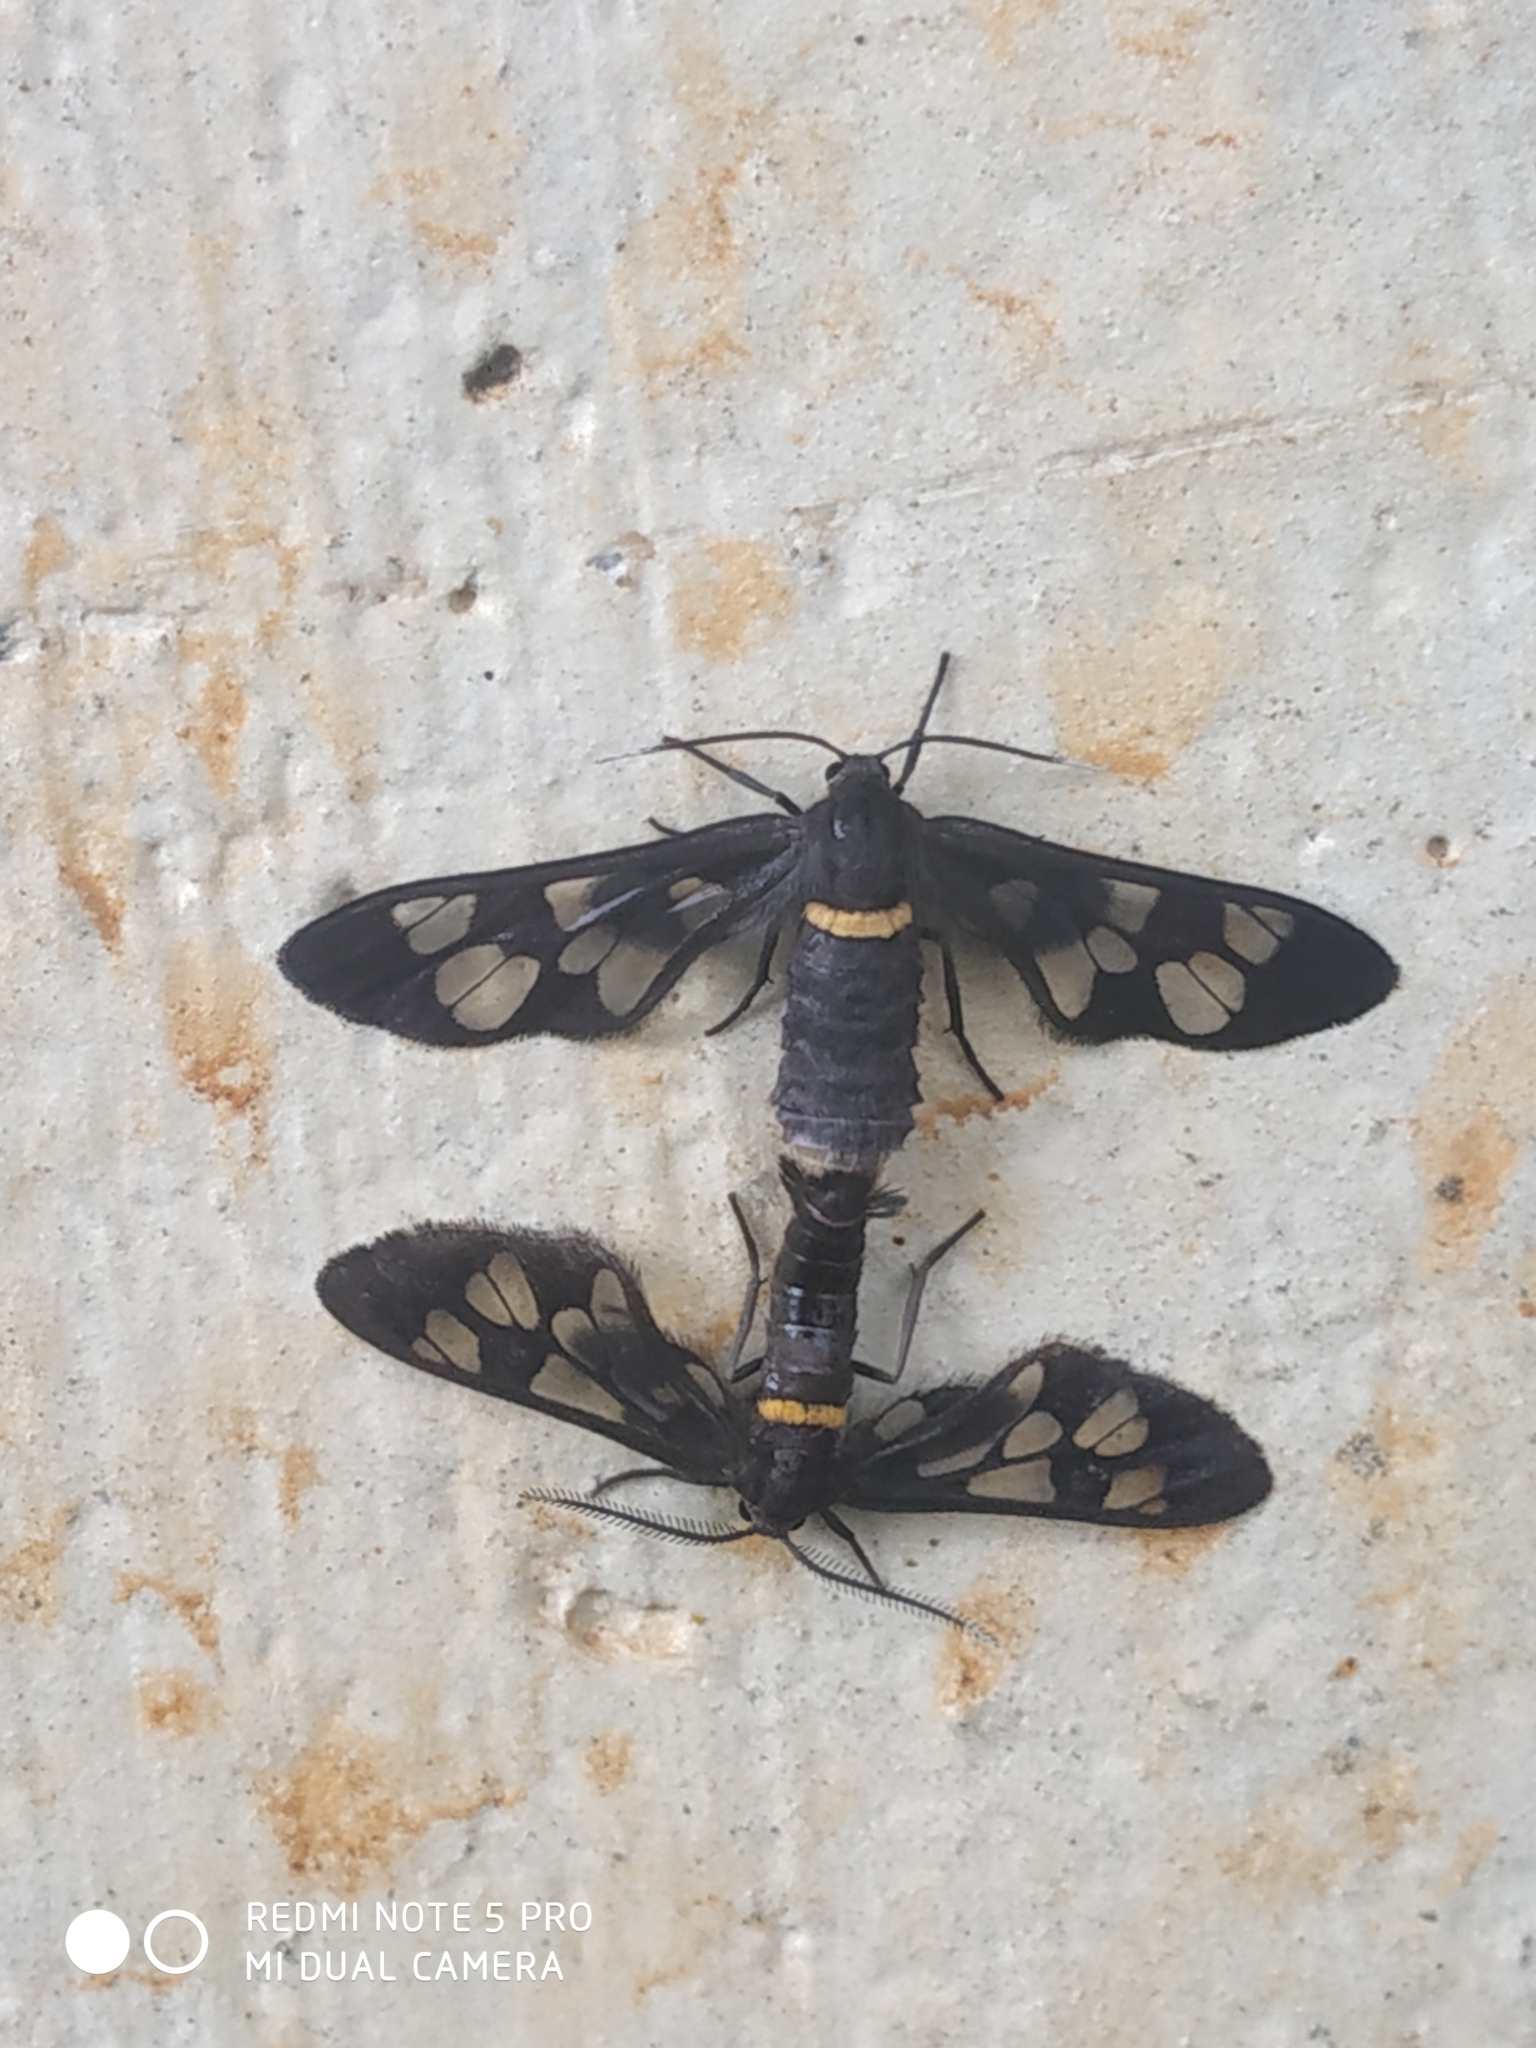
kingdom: Animalia
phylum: Arthropoda
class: Insecta
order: Lepidoptera
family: Erebidae
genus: Syntomoides
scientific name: Syntomoides imaon
